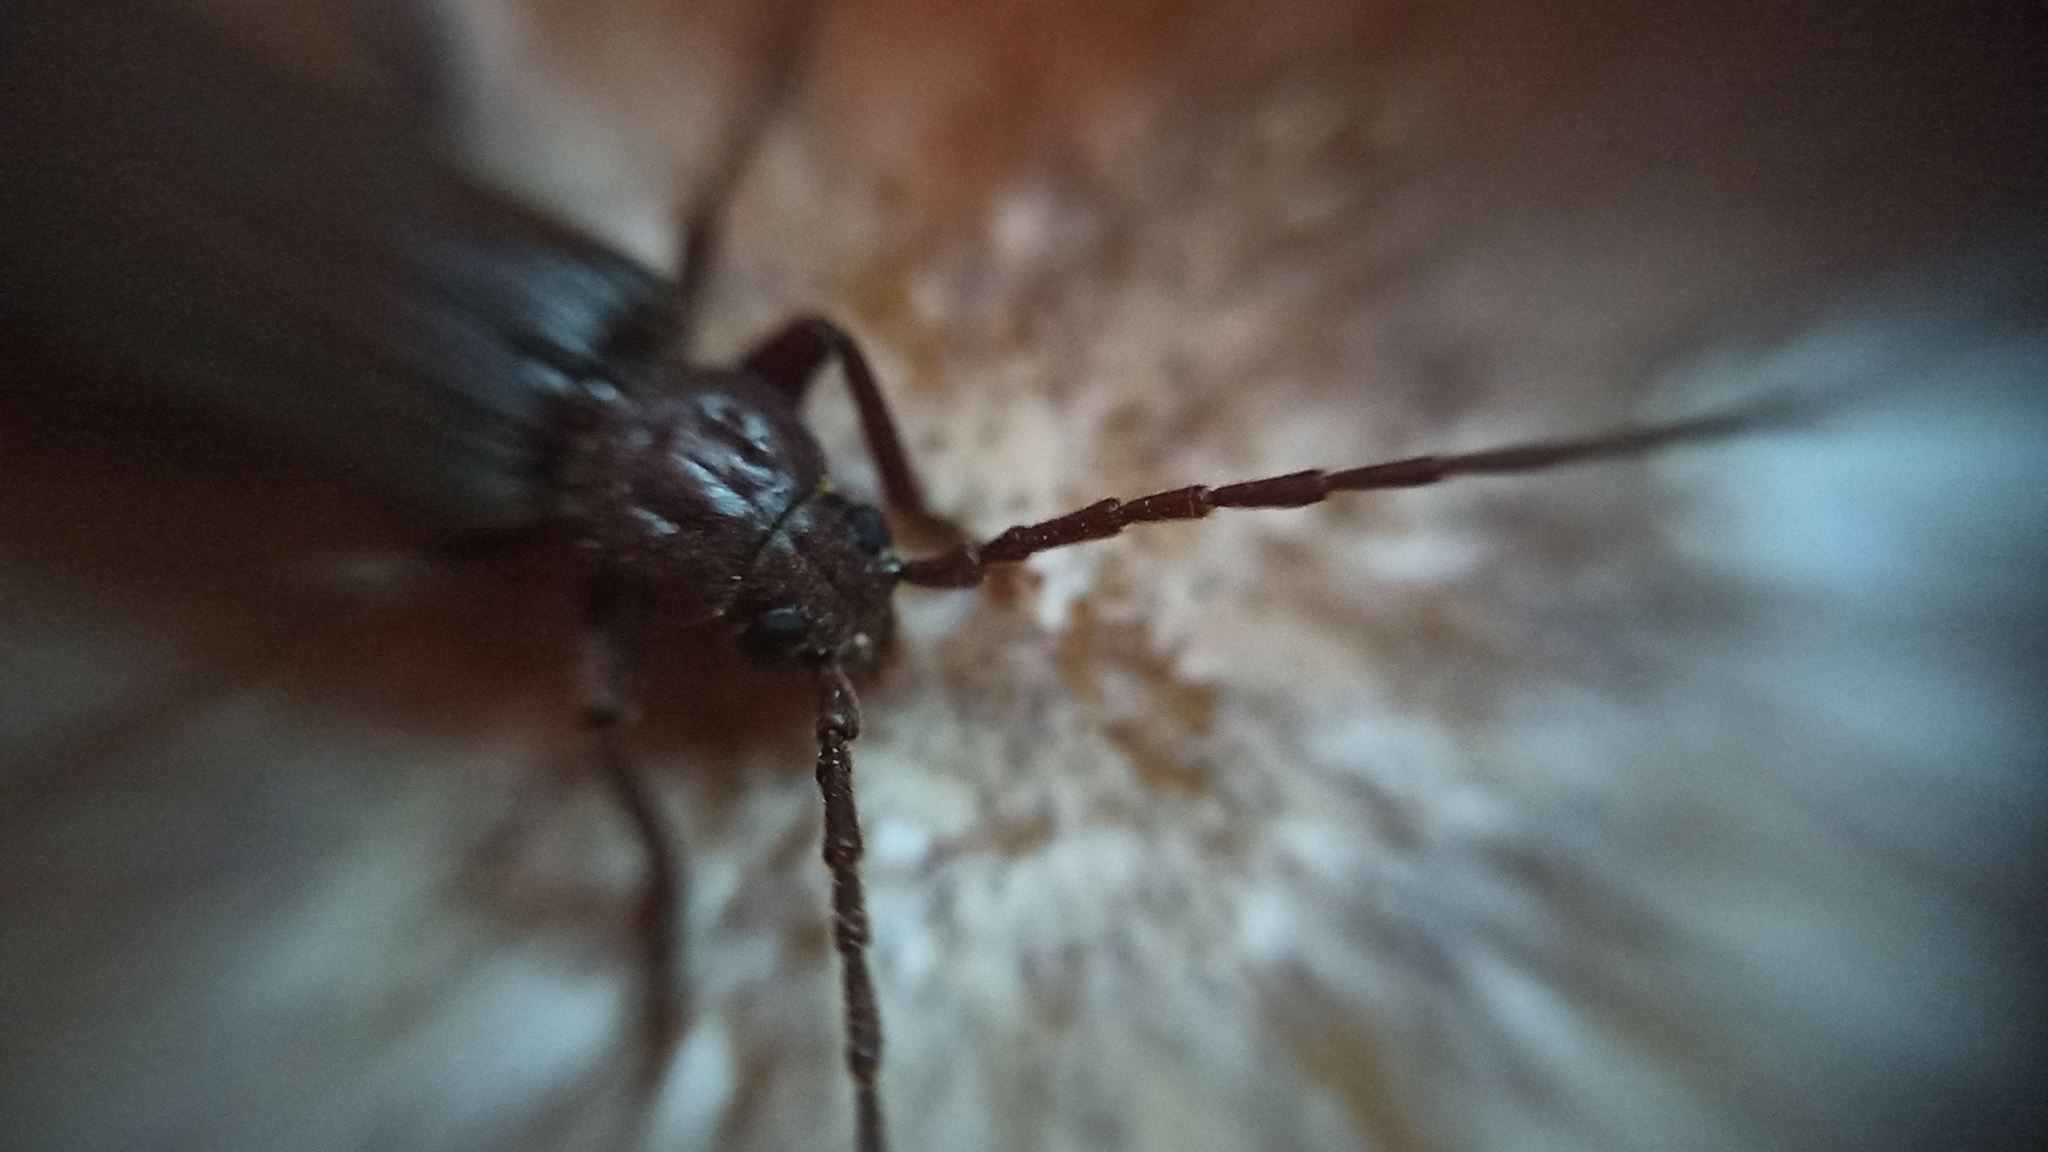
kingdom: Animalia
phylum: Arthropoda
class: Insecta
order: Coleoptera
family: Cerambycidae
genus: Arhopalus
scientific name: Arhopalus rusticus
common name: Rust pine borer
